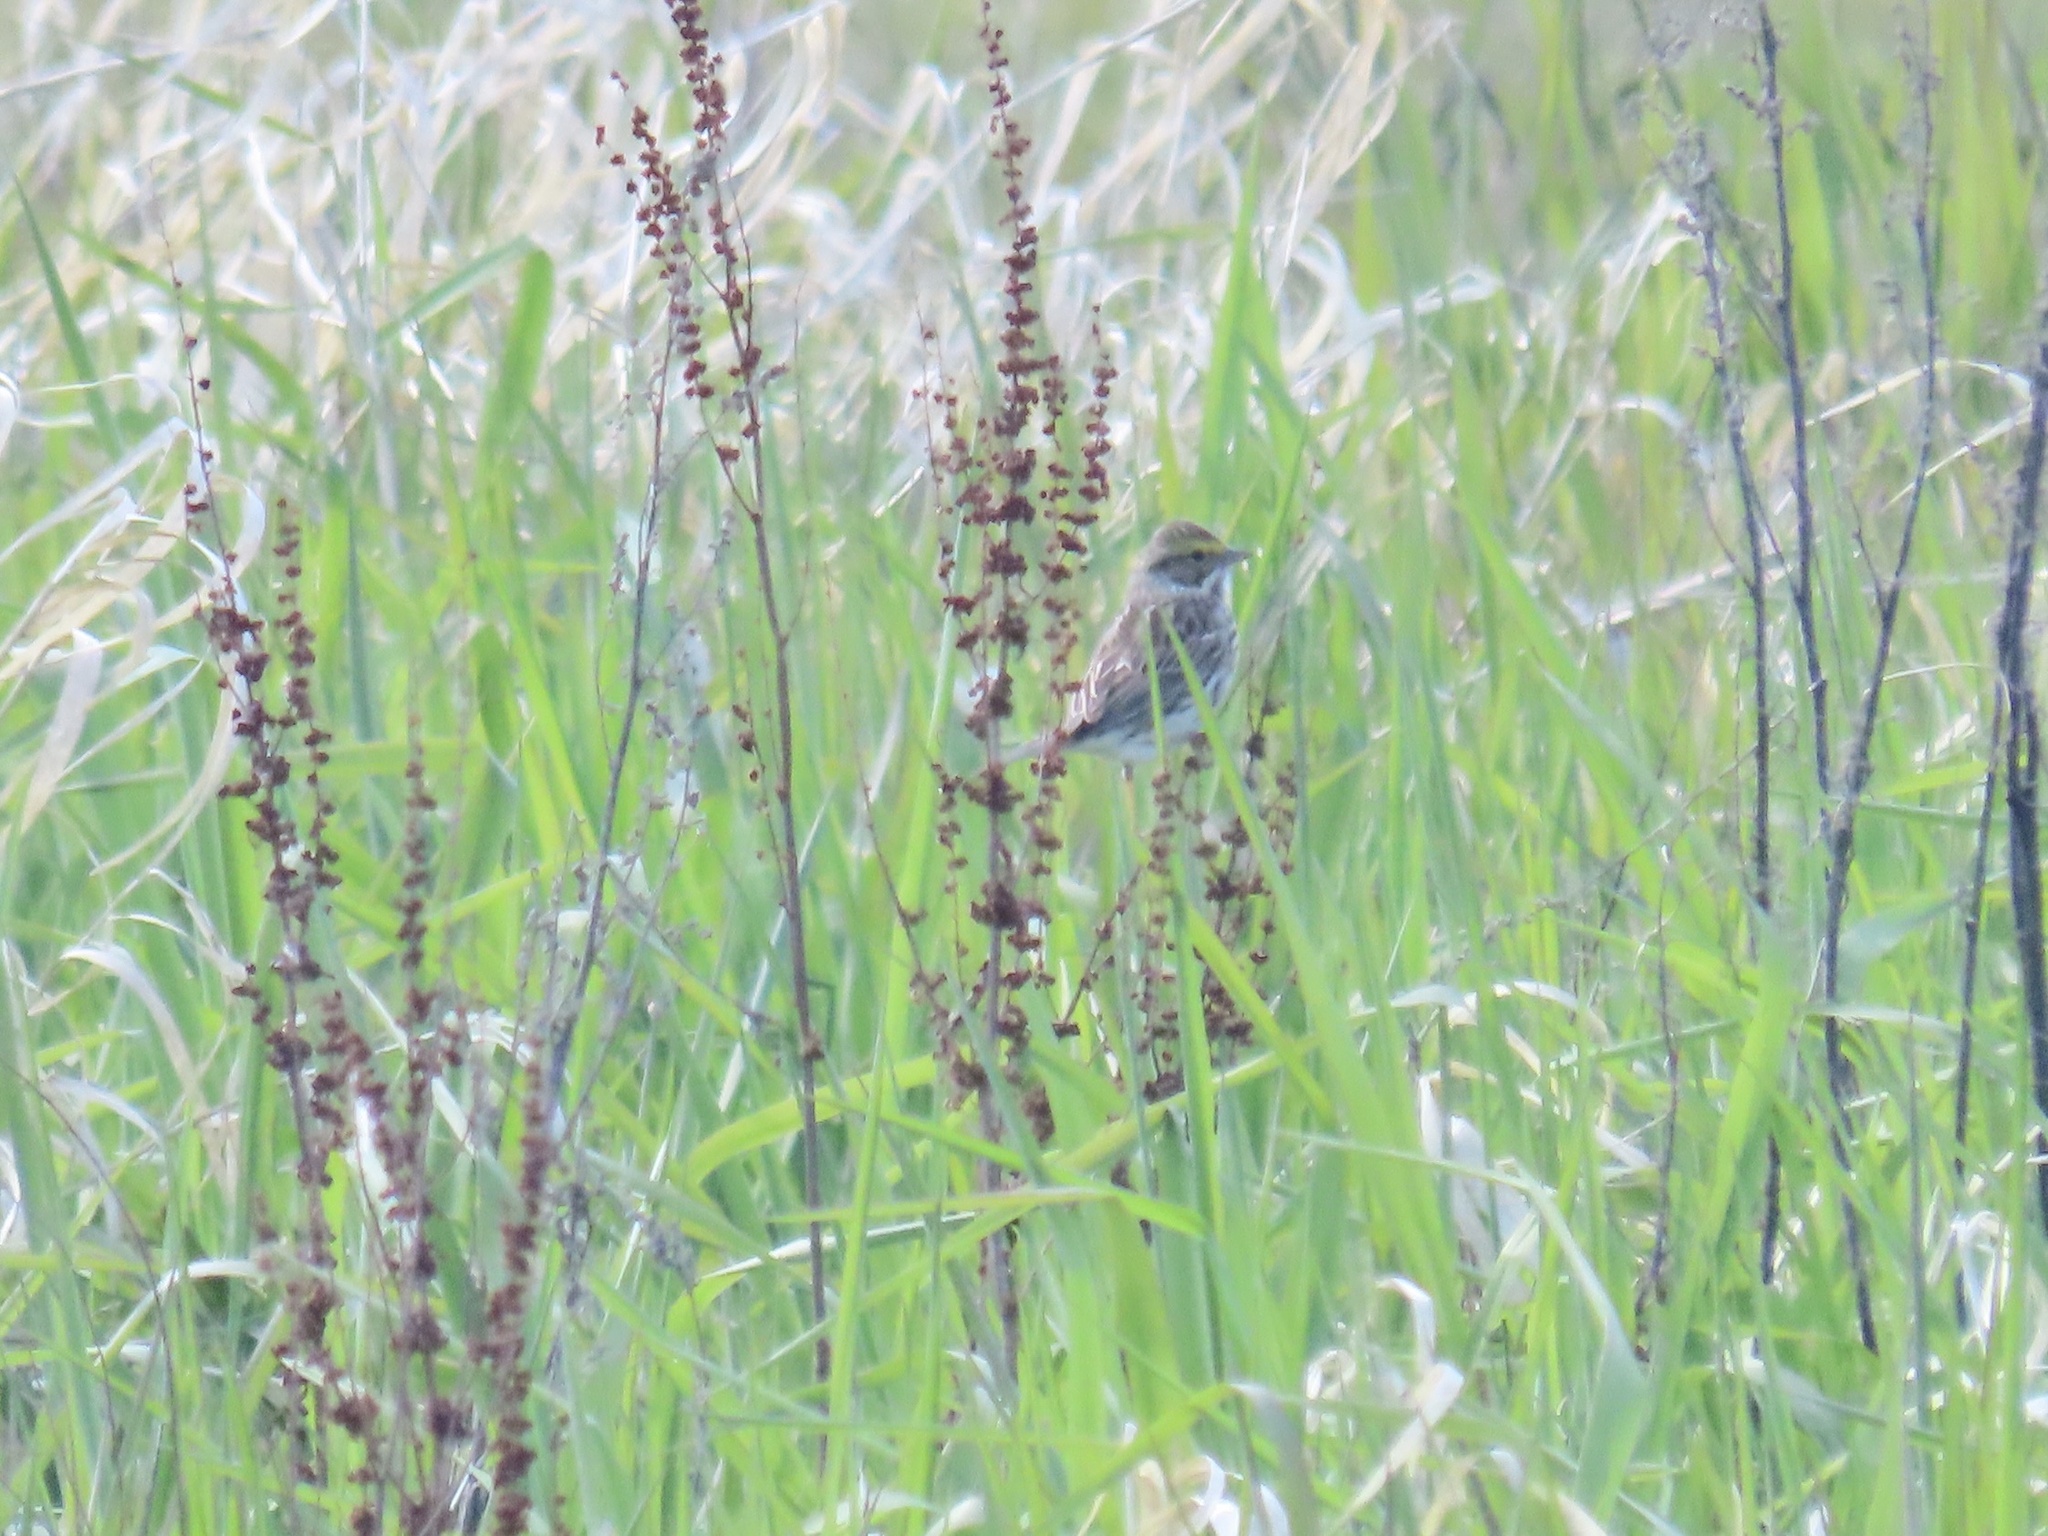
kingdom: Animalia
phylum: Chordata
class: Aves
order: Passeriformes
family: Passerellidae
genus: Passerculus
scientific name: Passerculus sandwichensis
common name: Savannah sparrow
